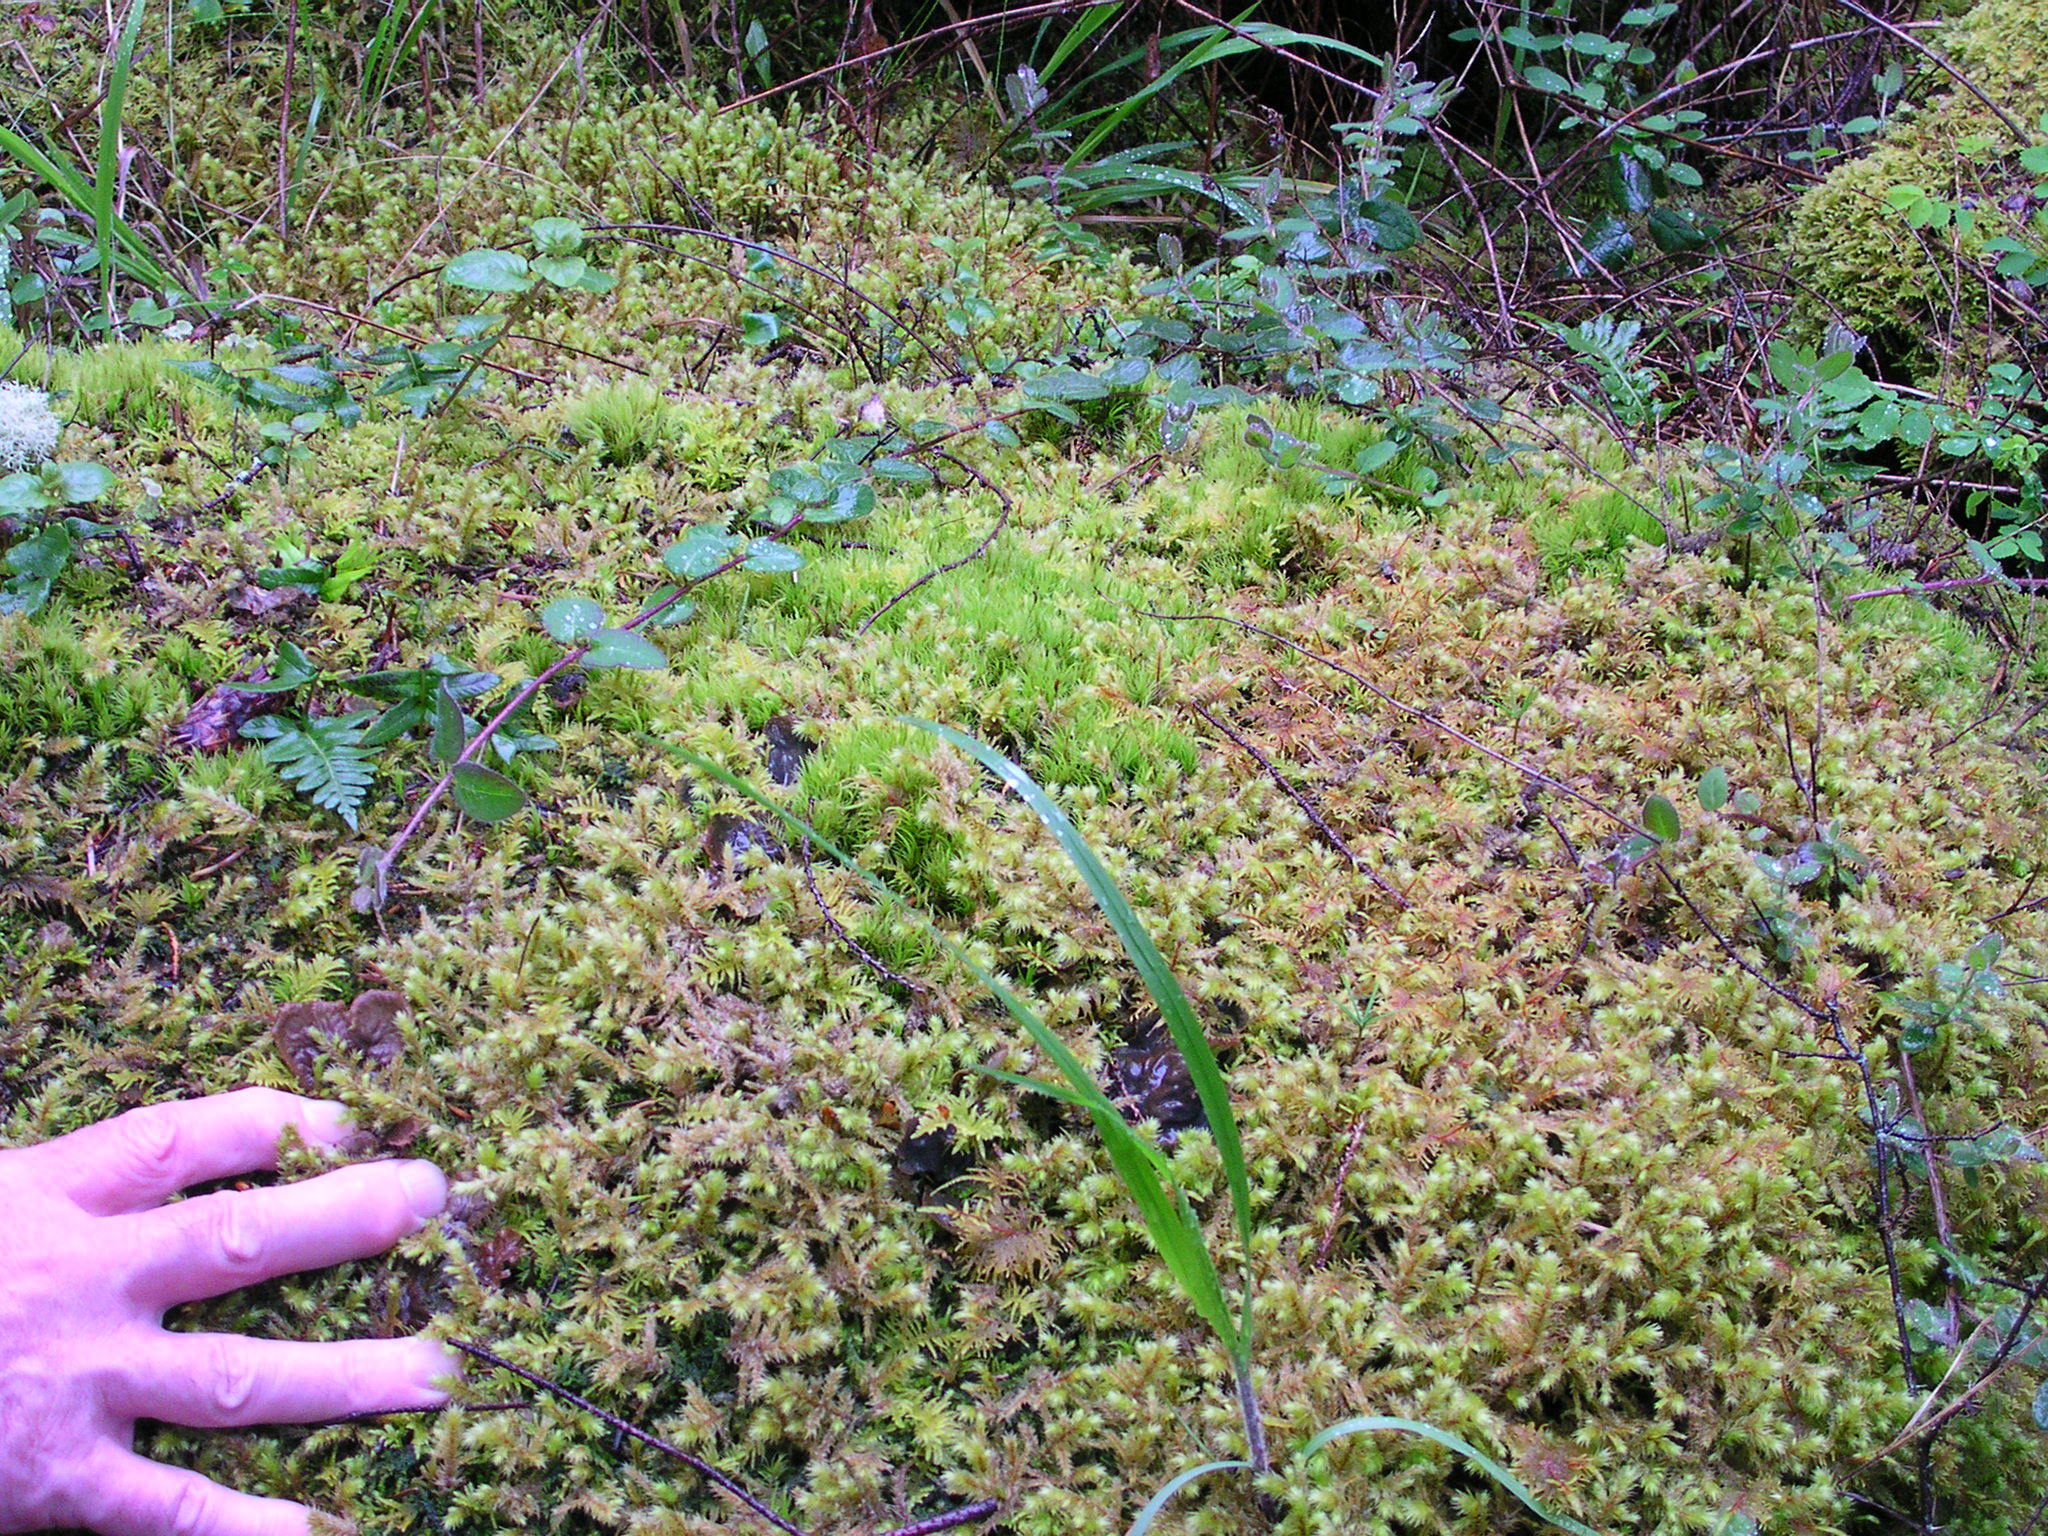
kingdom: Plantae
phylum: Tracheophyta
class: Magnoliopsida
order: Dipsacales
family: Caprifoliaceae
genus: Lonicera
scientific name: Lonicera hispidula
